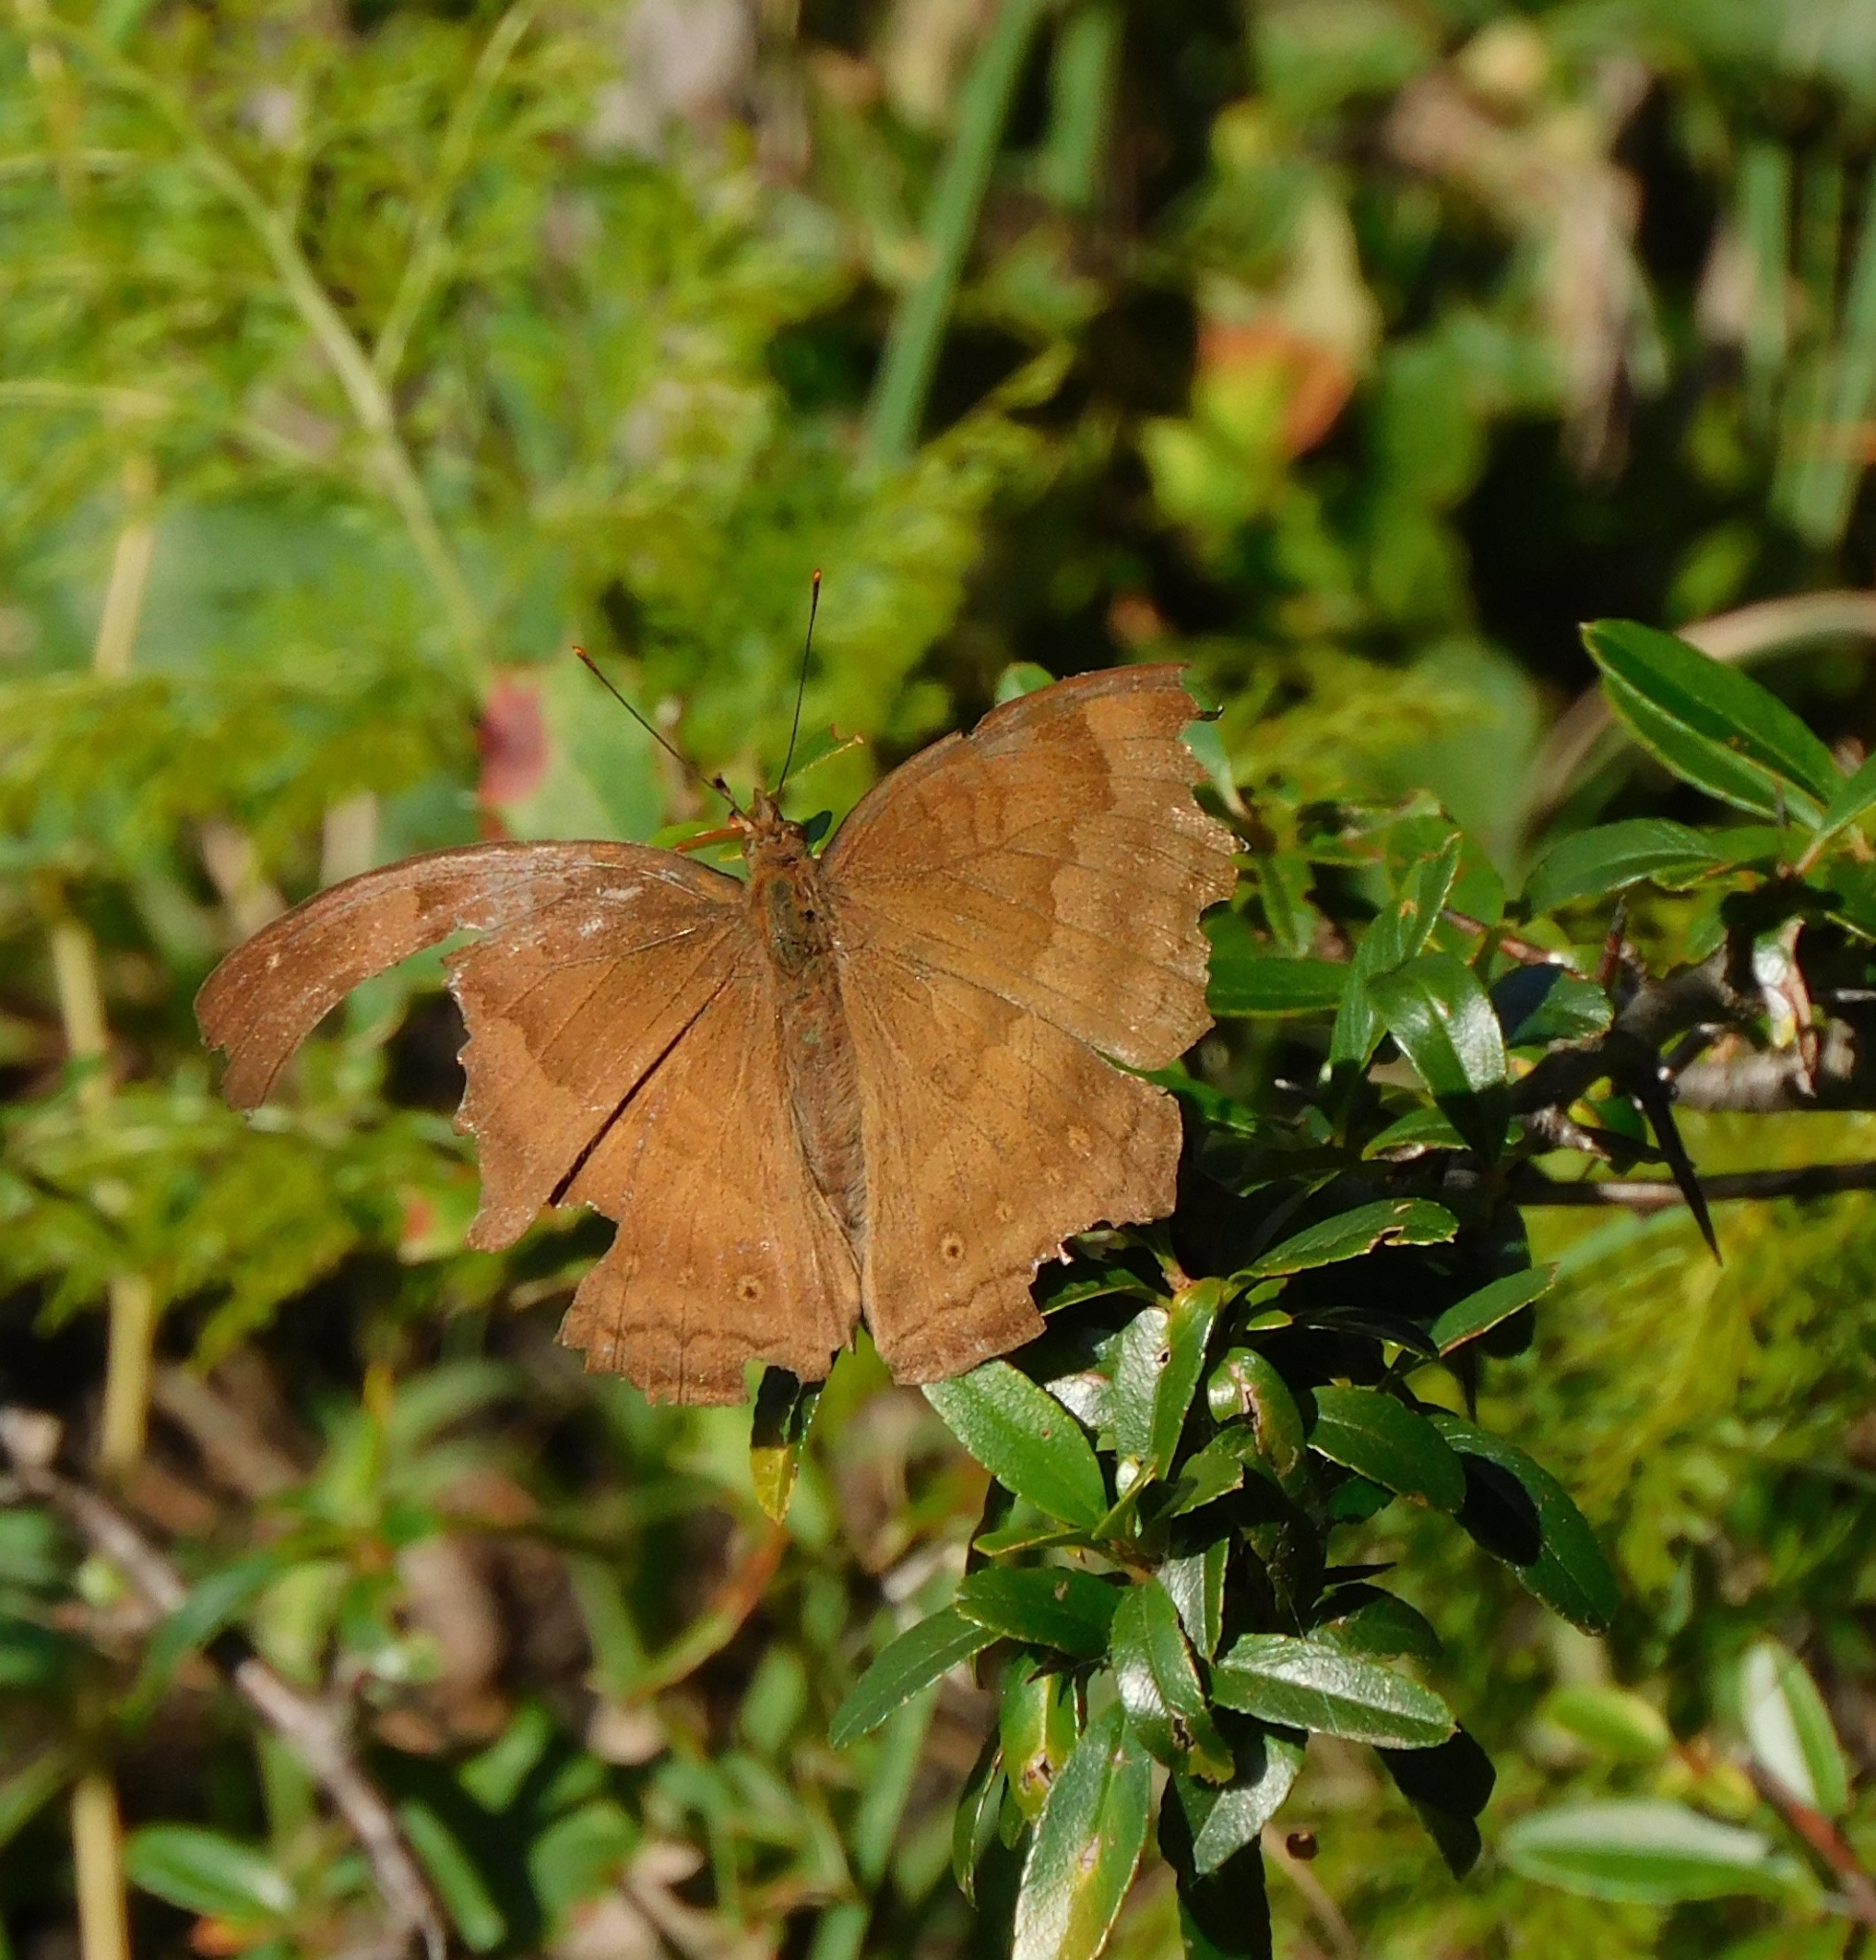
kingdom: Animalia
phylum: Arthropoda
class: Insecta
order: Lepidoptera
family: Nymphalidae
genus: Junonia
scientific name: Junonia iphita
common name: Chocolate pansy
